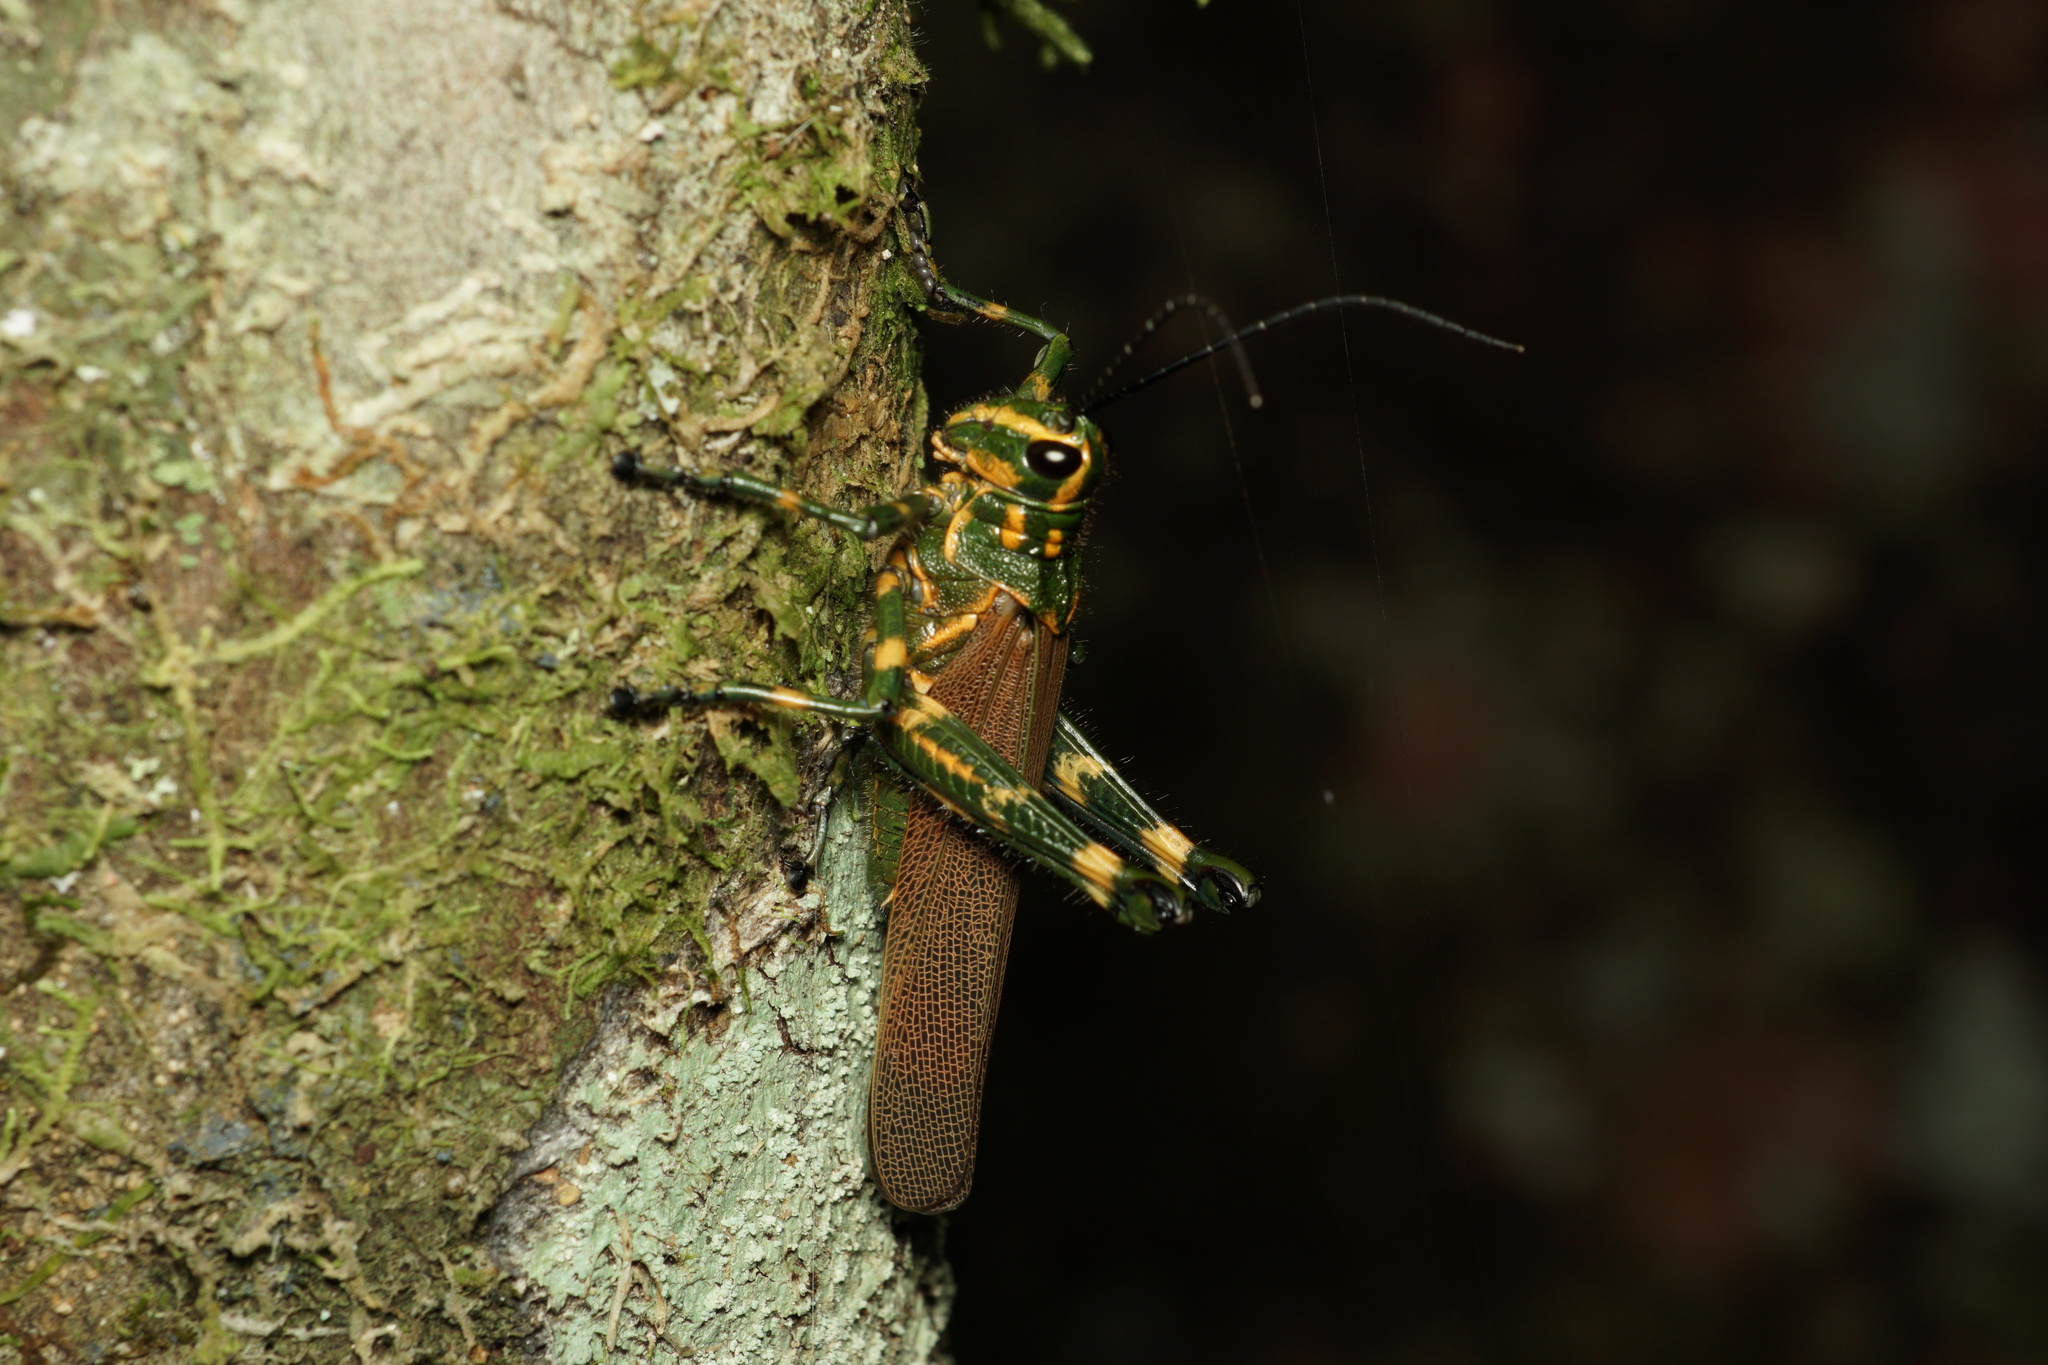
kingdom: Animalia
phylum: Arthropoda
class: Insecta
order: Orthoptera
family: Romaleidae
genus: Chromacris
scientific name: Chromacris speciosa
